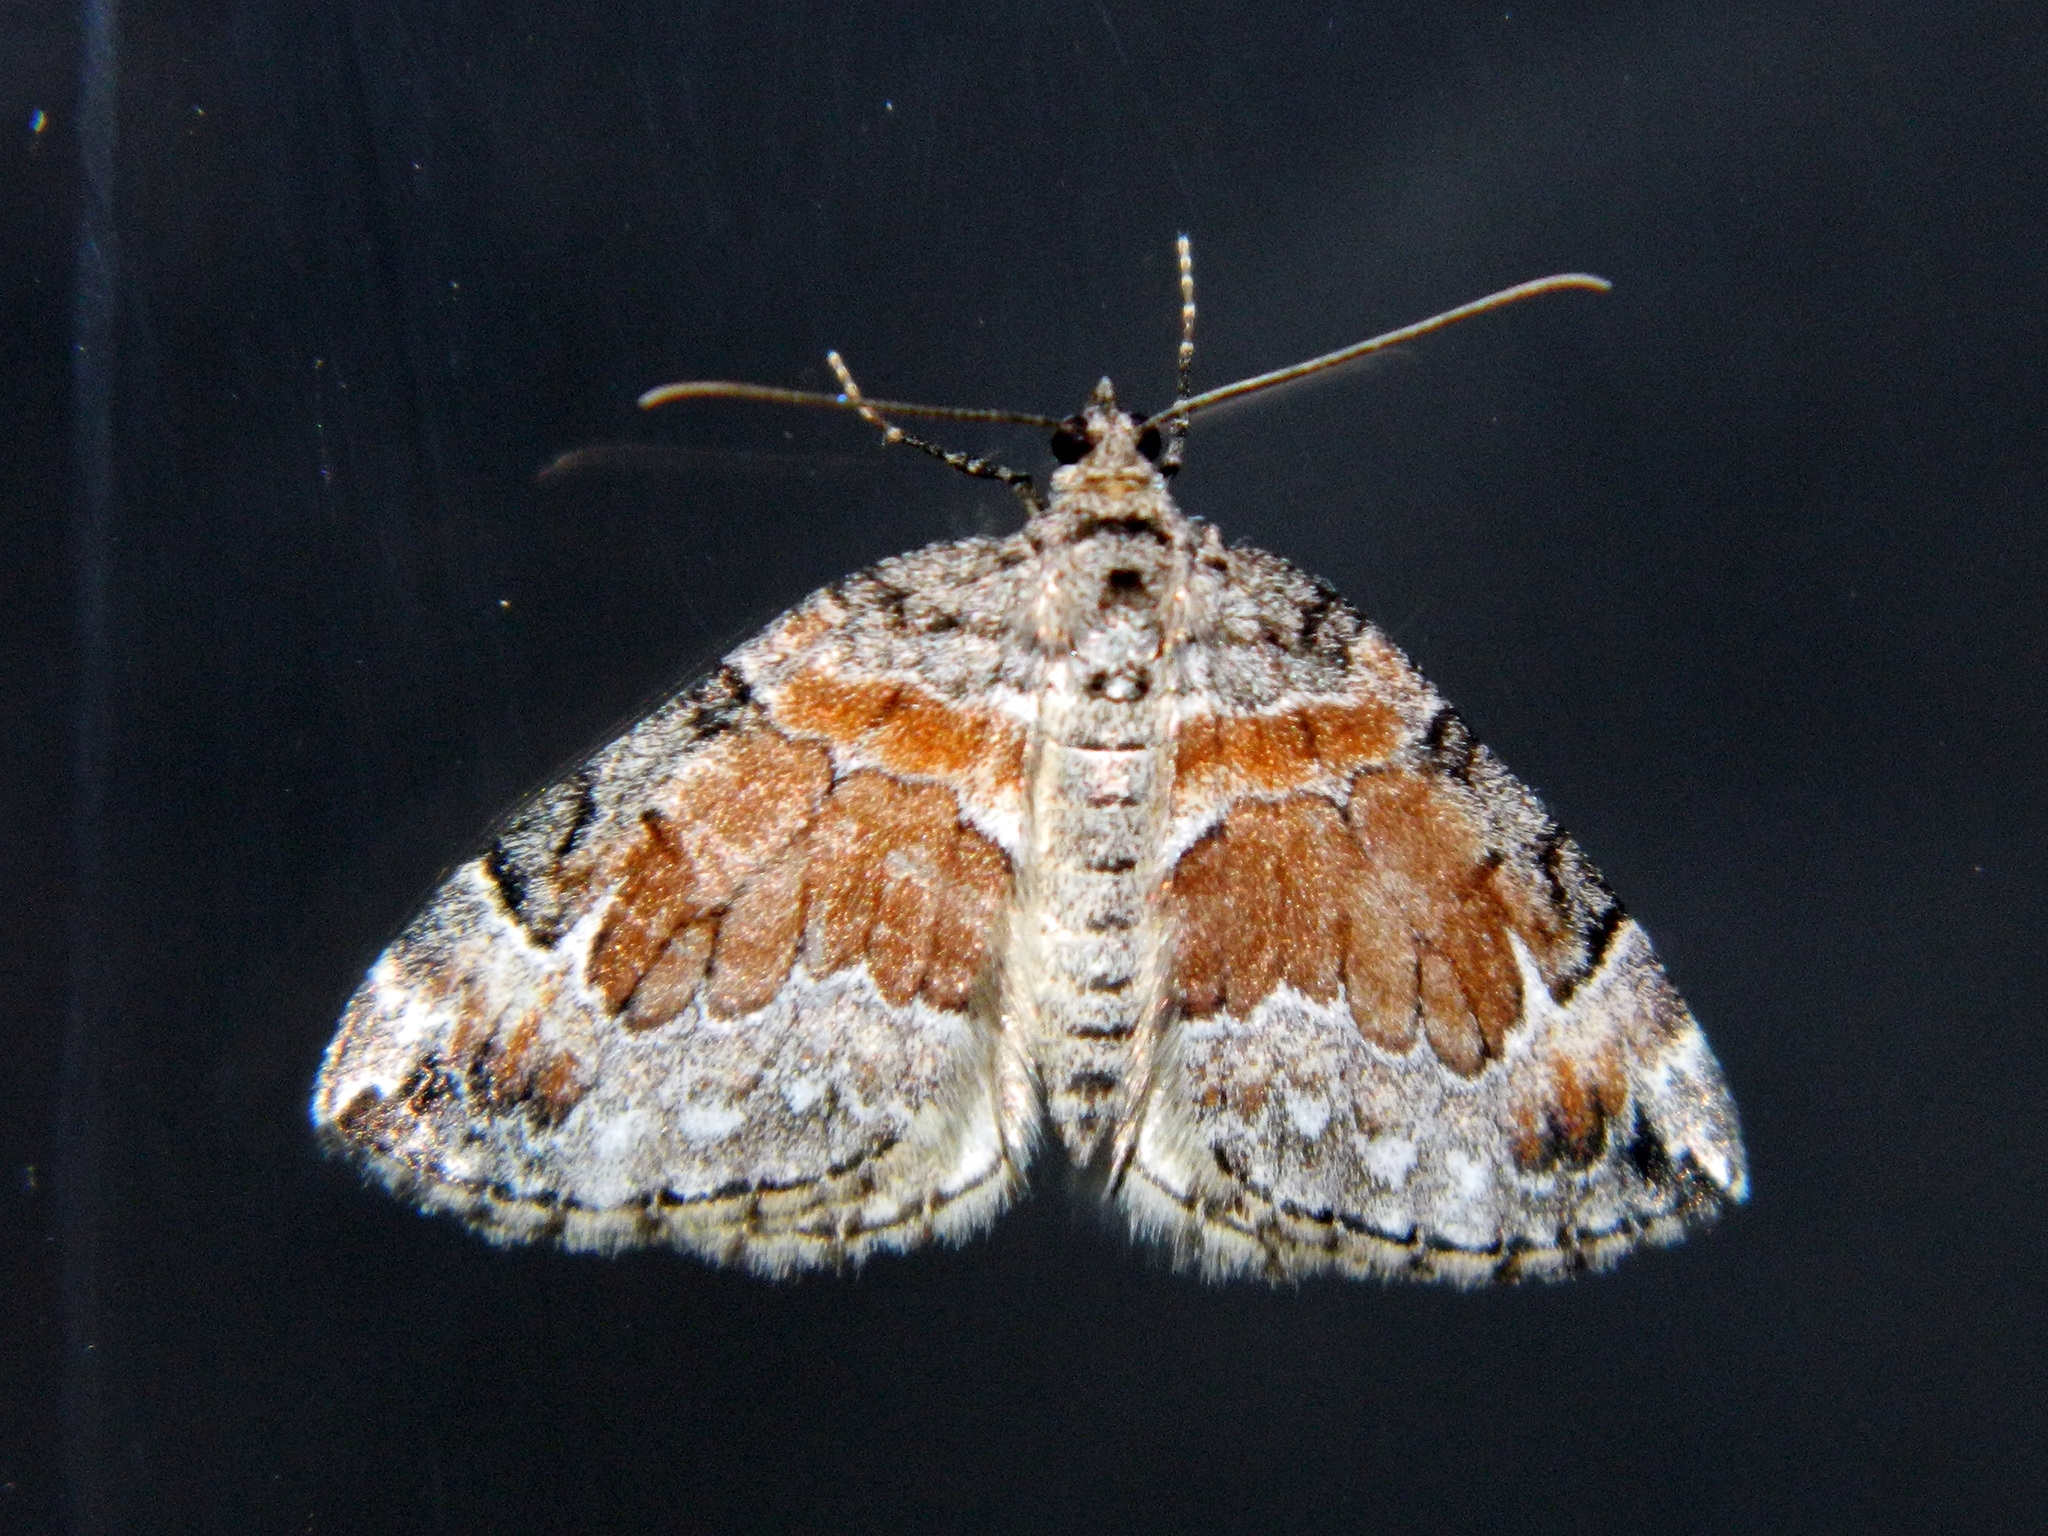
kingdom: Animalia
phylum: Arthropoda
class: Insecta
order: Lepidoptera
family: Geometridae
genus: Dysstroma
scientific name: Dysstroma hersiliata
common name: Orange-barred carpet
